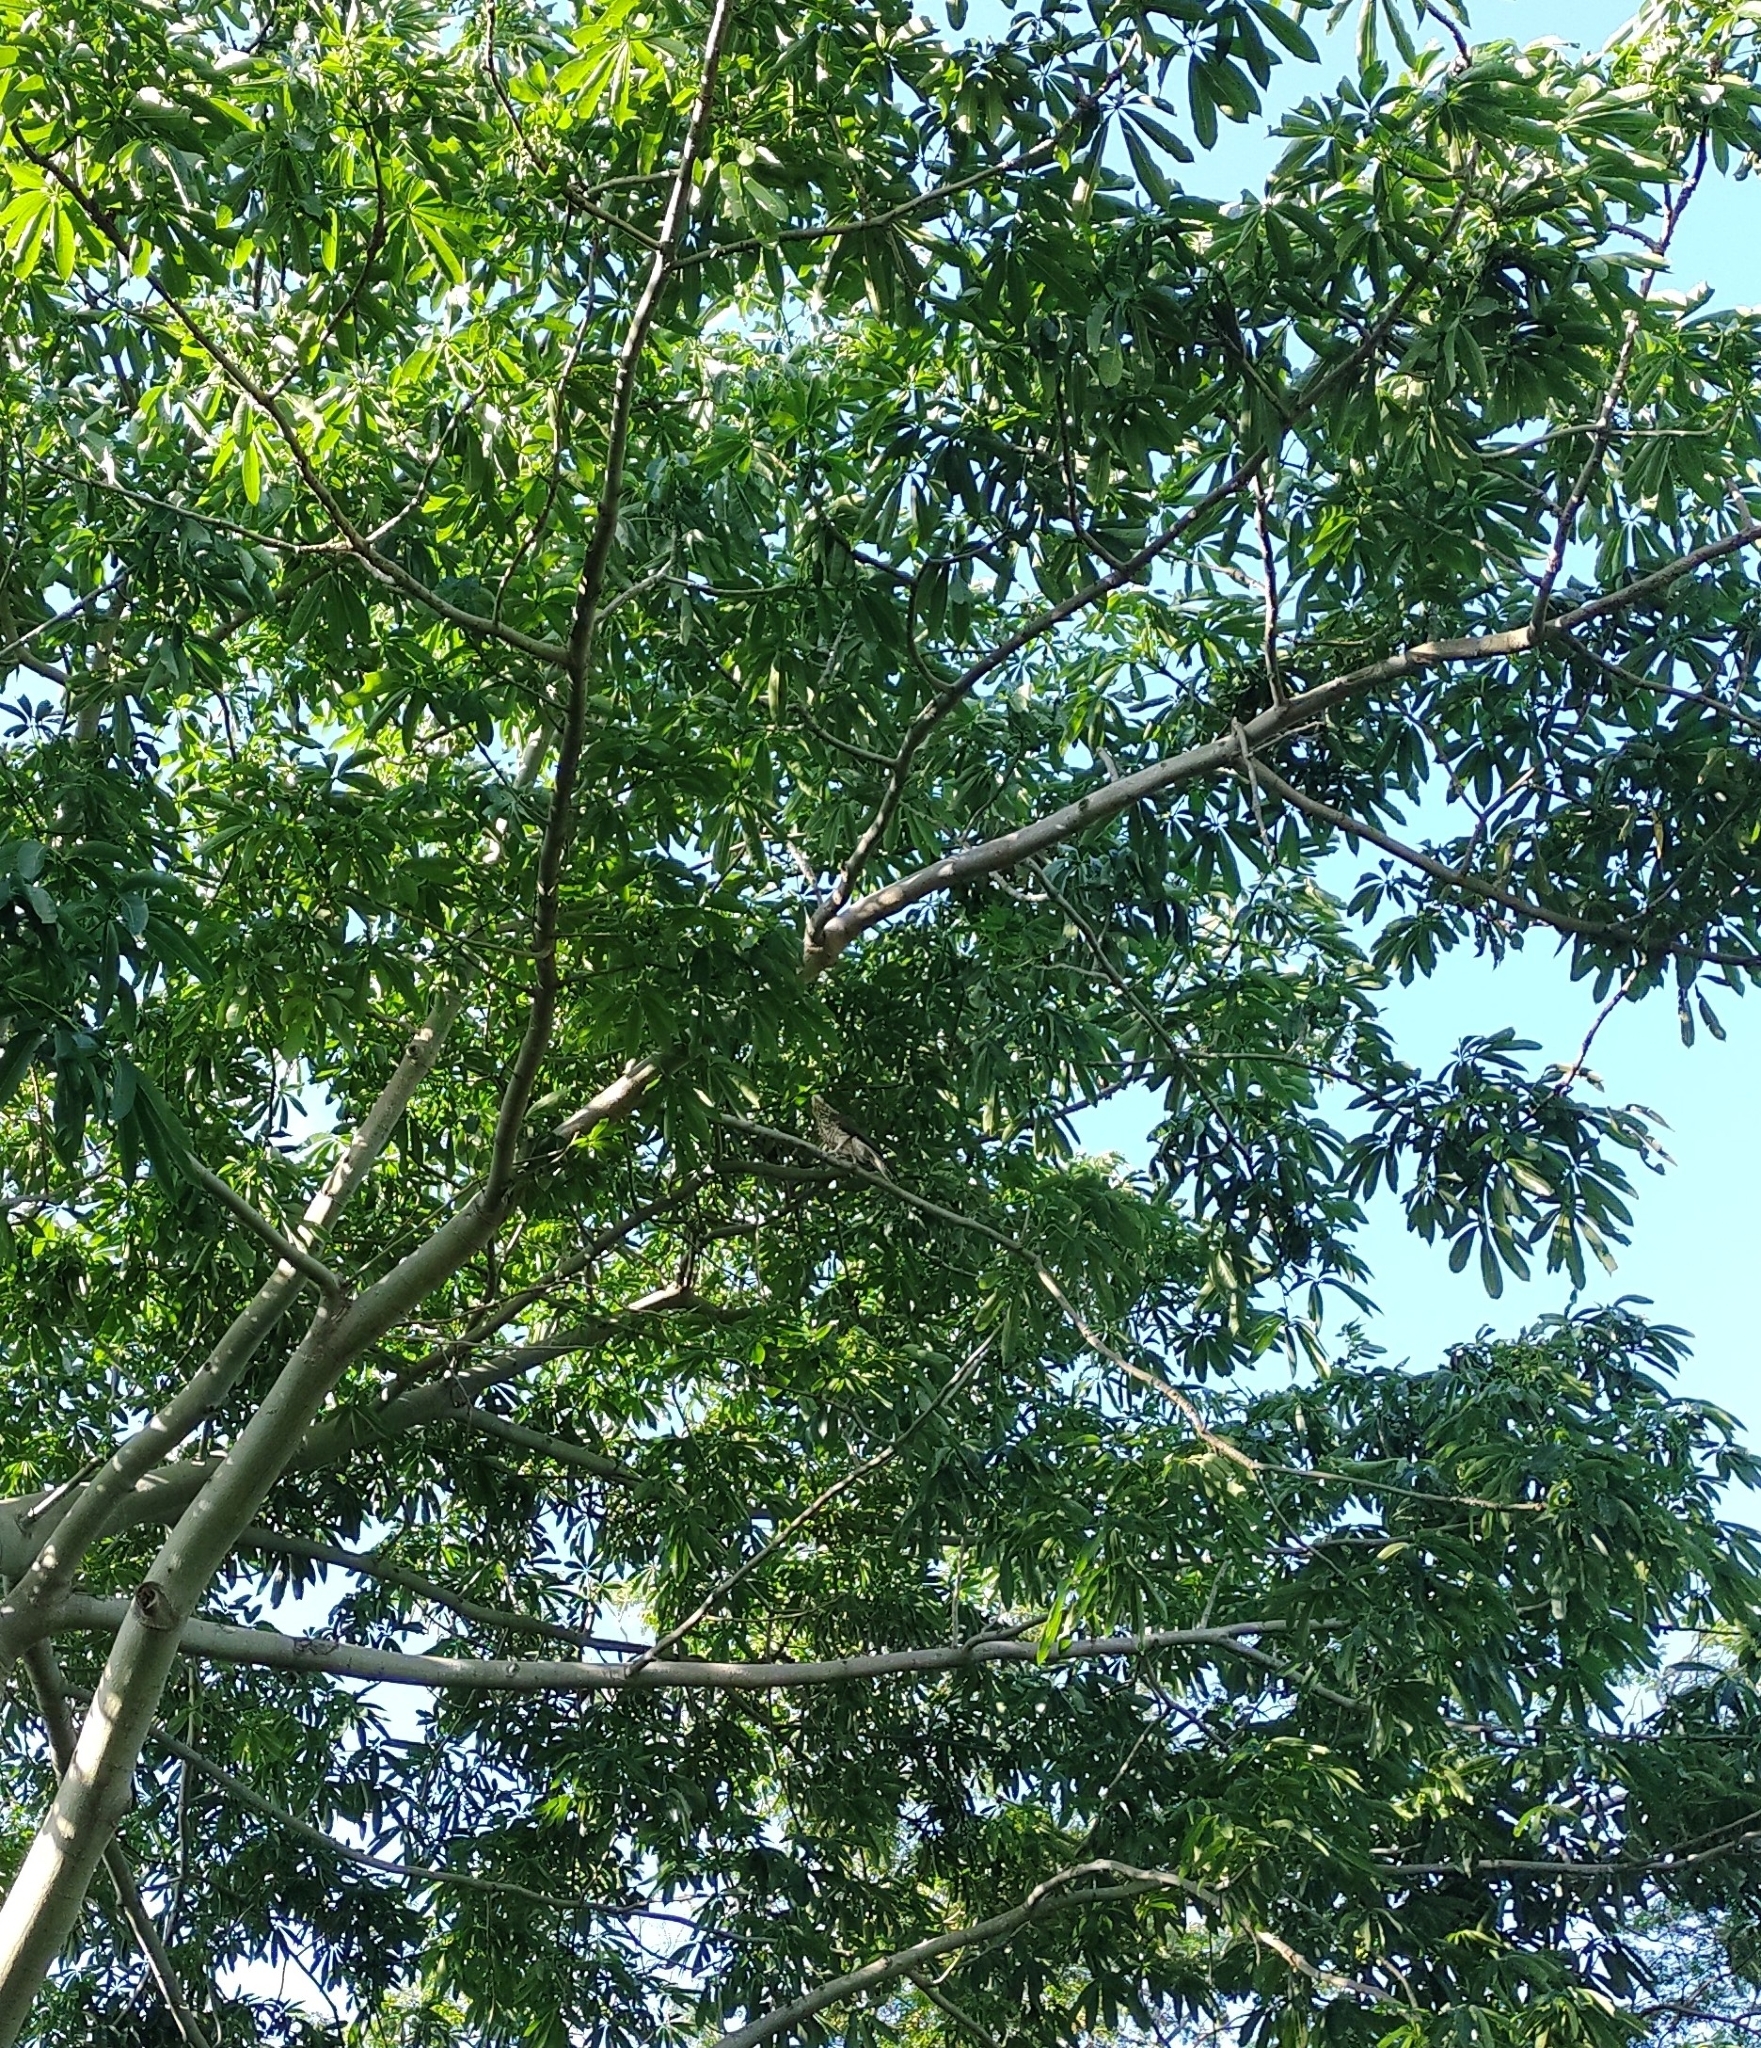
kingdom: Animalia
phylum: Chordata
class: Aves
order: Falconiformes
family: Falconidae
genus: Daptrius
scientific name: Daptrius
